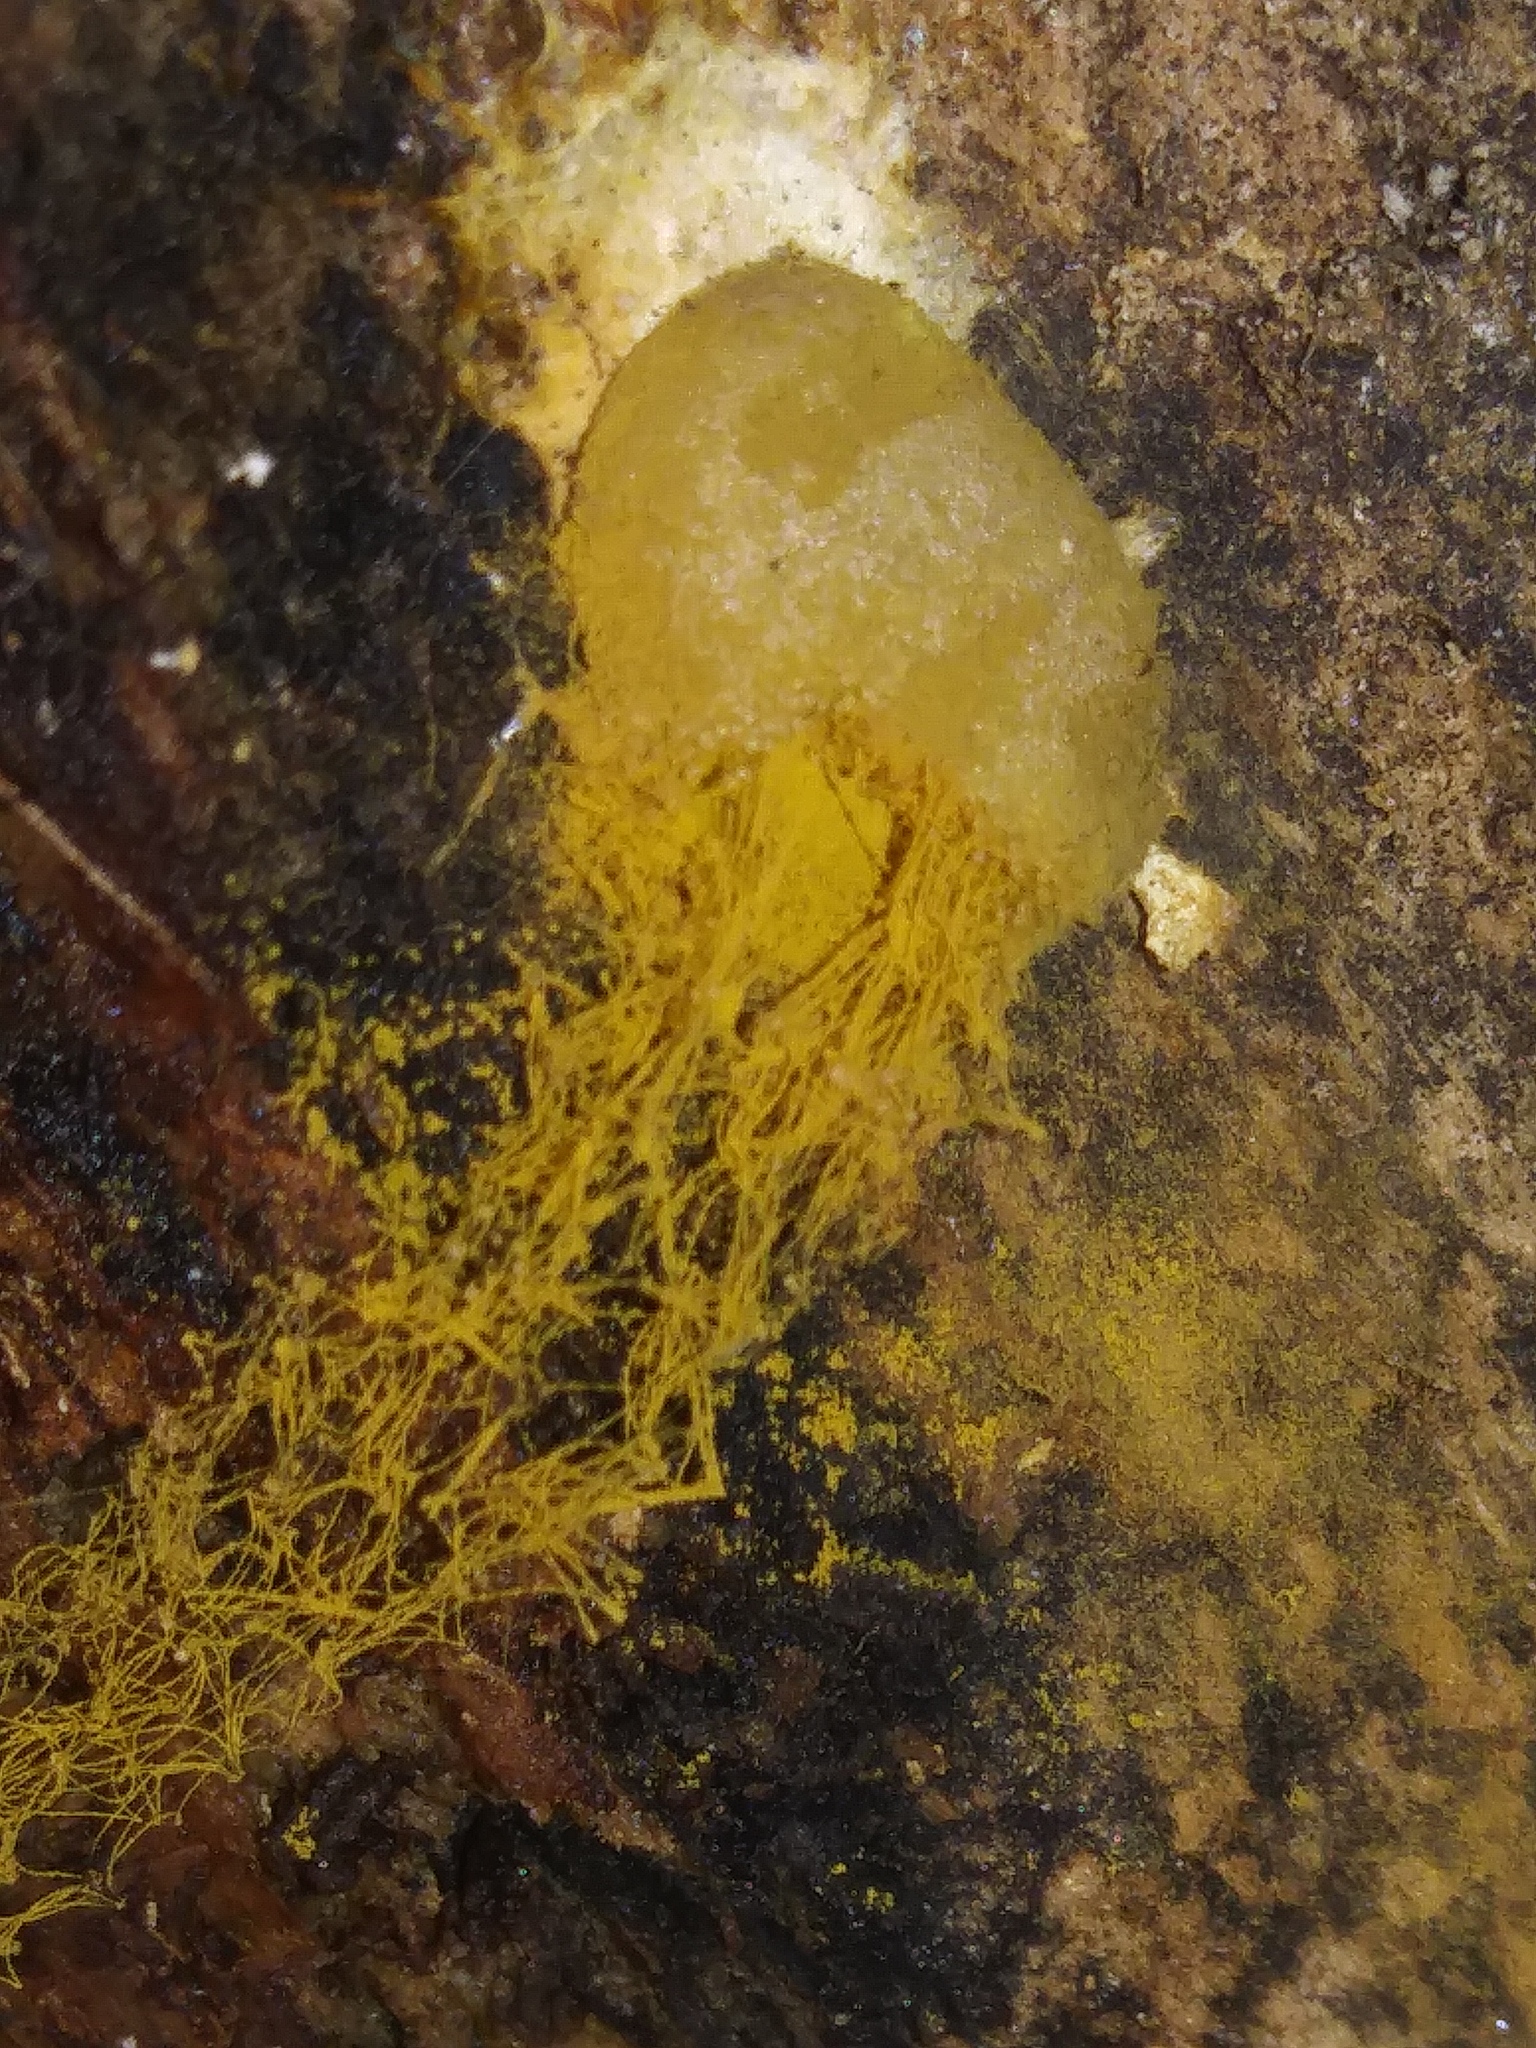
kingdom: Protozoa
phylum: Mycetozoa
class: Myxomycetes
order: Trichiales
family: Dictydiaethaliaceae
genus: Dictydiaethalium
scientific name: Dictydiaethalium plumbeum
